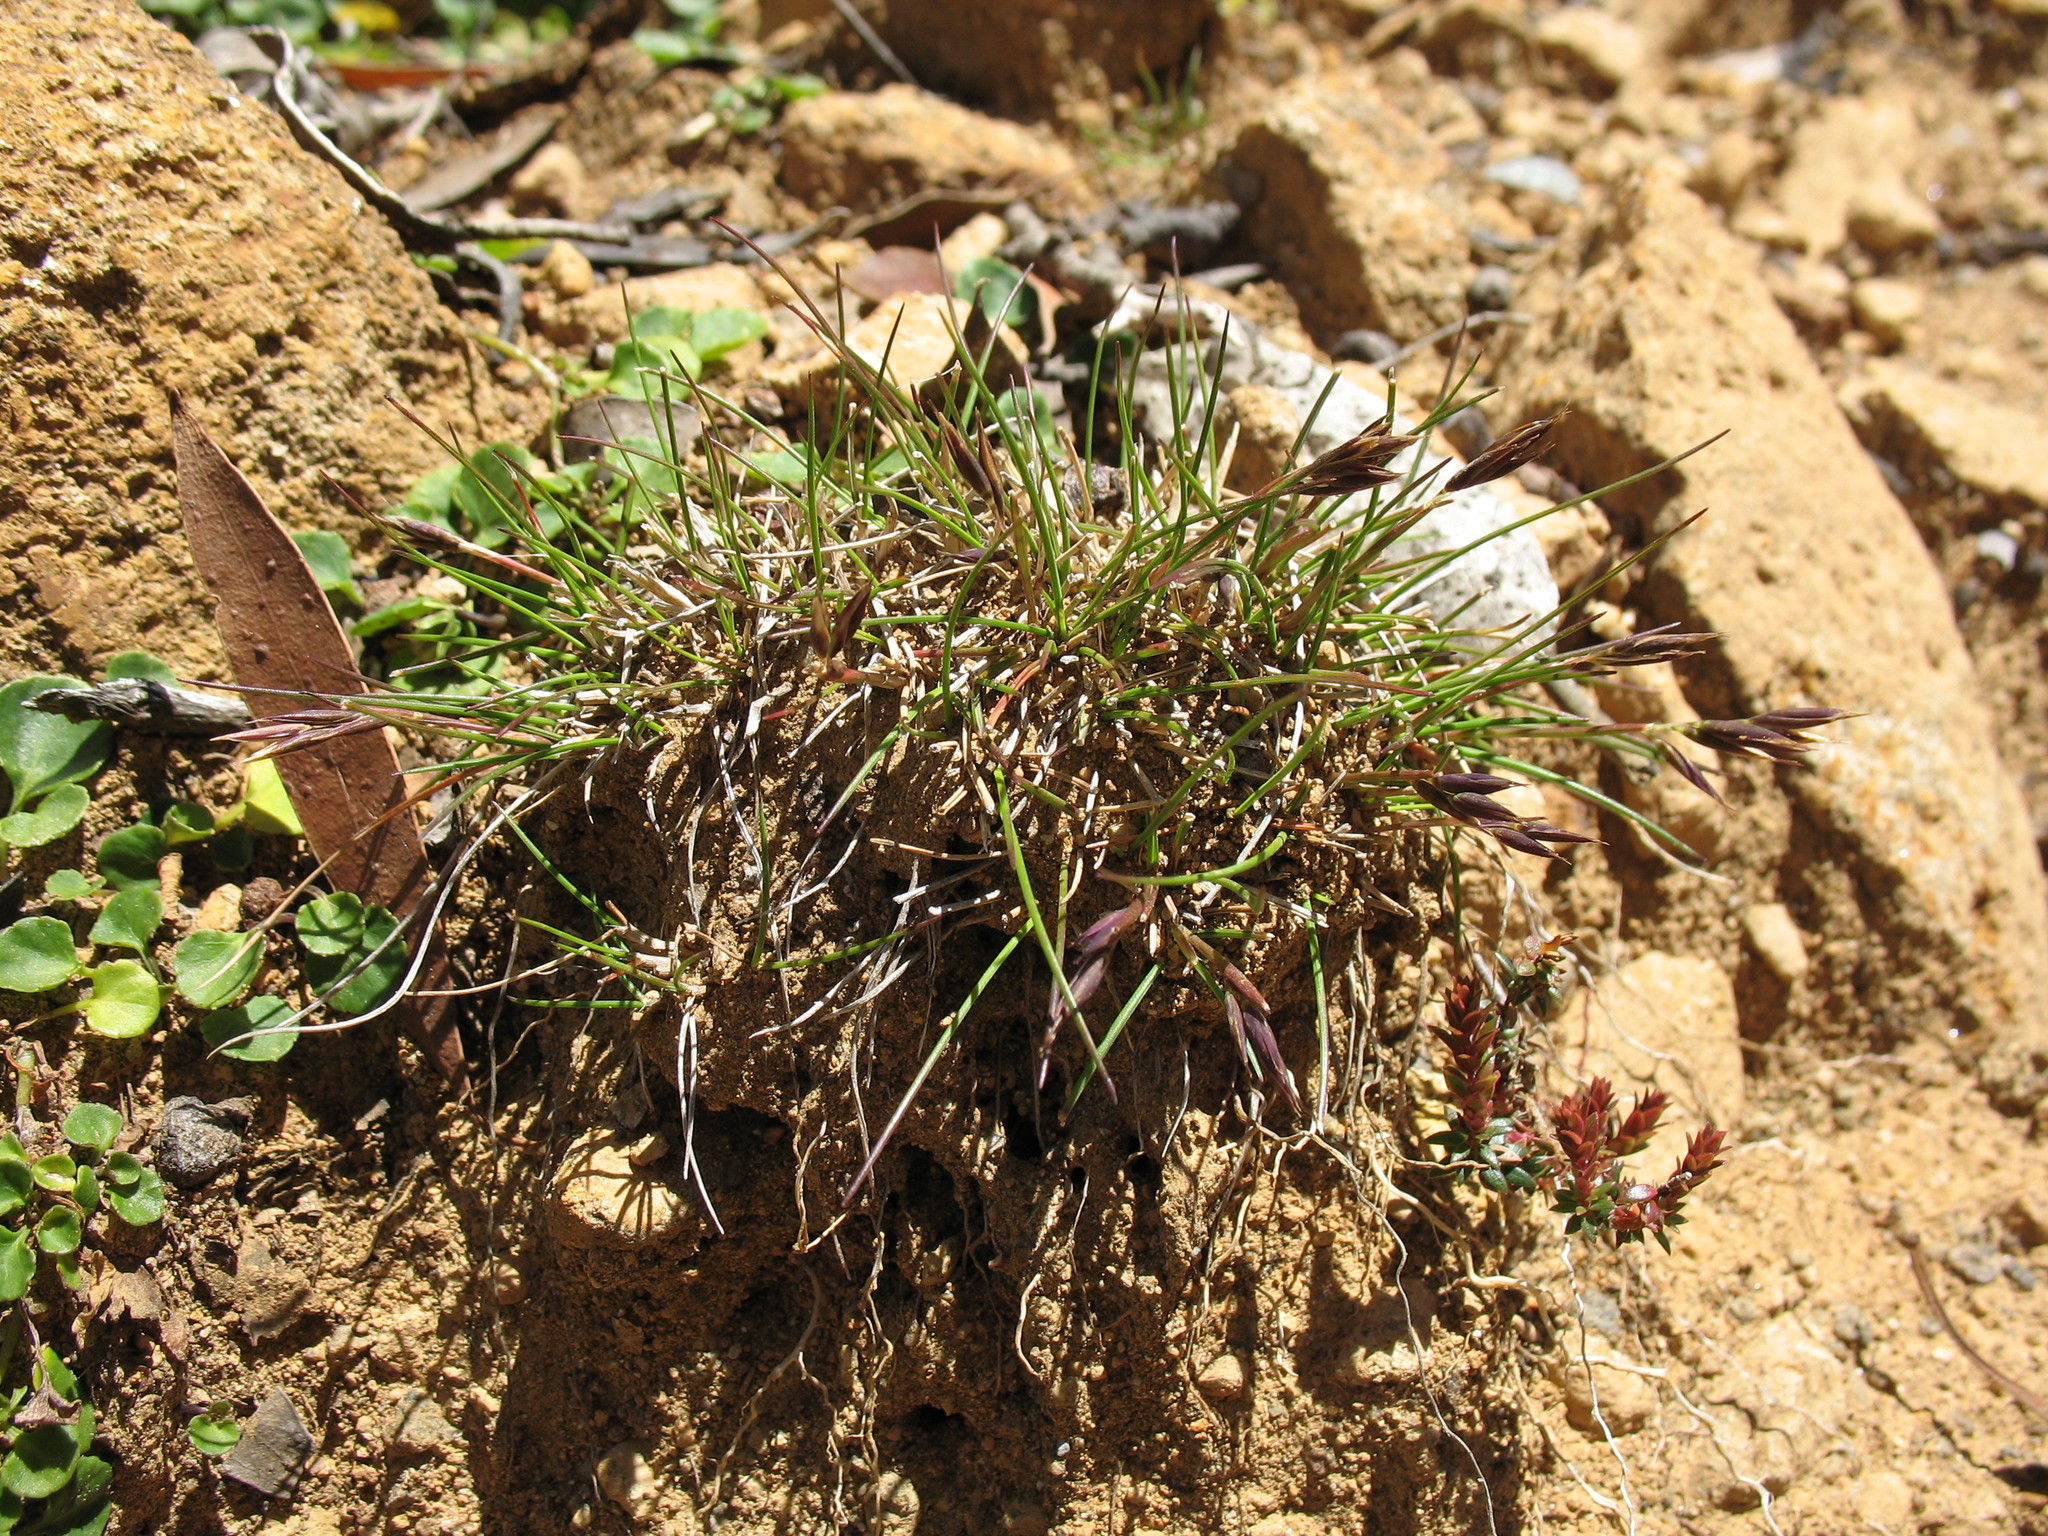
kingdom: Plantae
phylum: Tracheophyta
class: Liliopsida
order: Poales
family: Poaceae
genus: Rytidosperma
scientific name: Rytidosperma fortunae-hibernae
